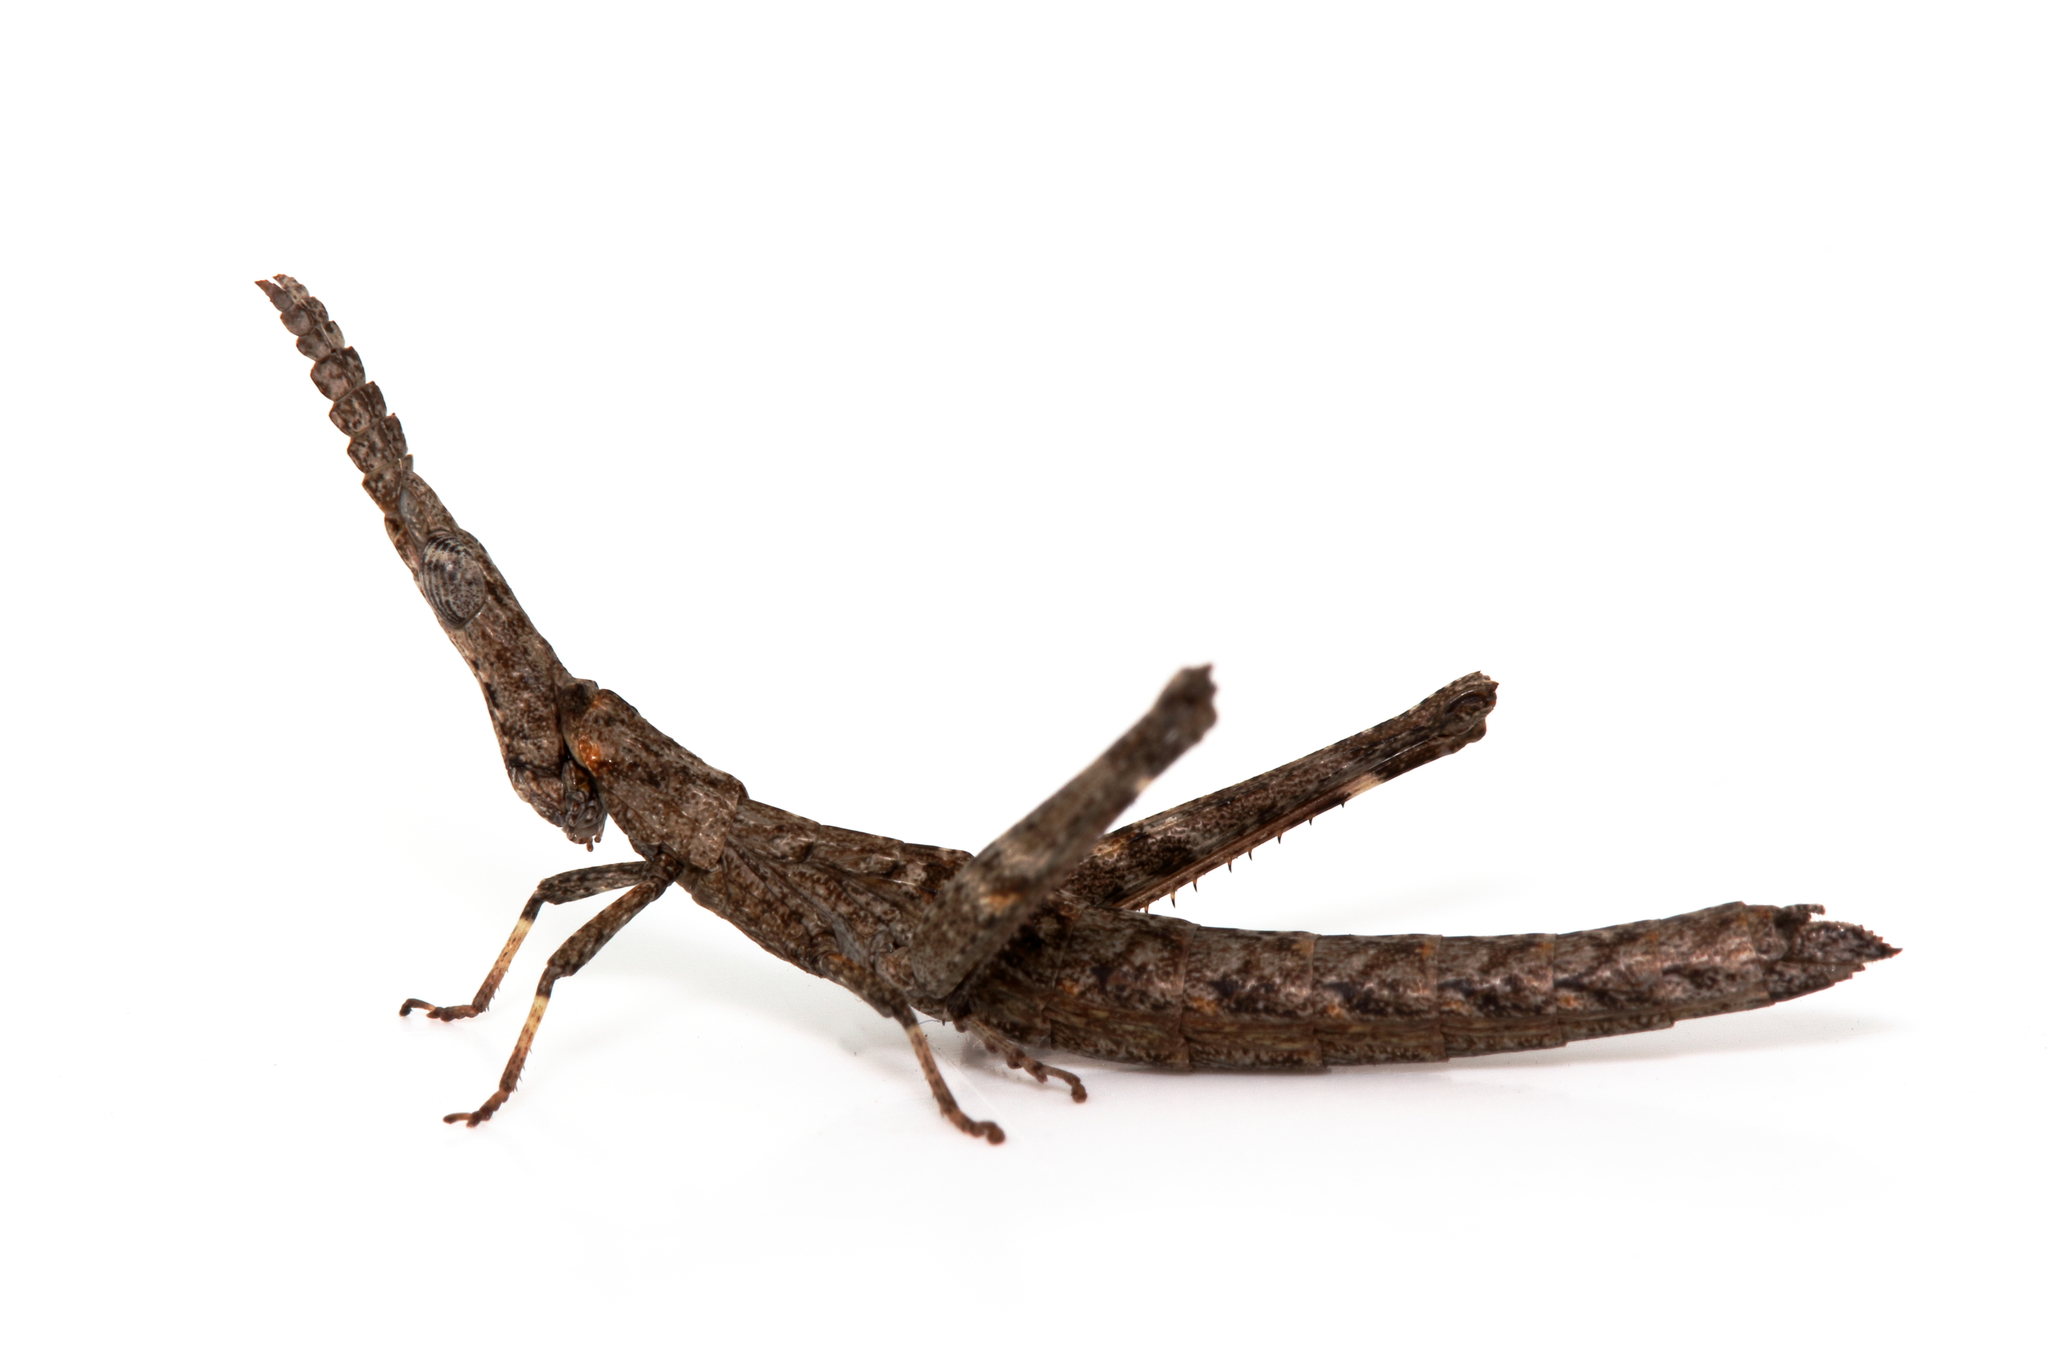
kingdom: Animalia
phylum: Arthropoda
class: Insecta
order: Orthoptera
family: Morabidae
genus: Vandiemenella
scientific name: Vandiemenella viatica
